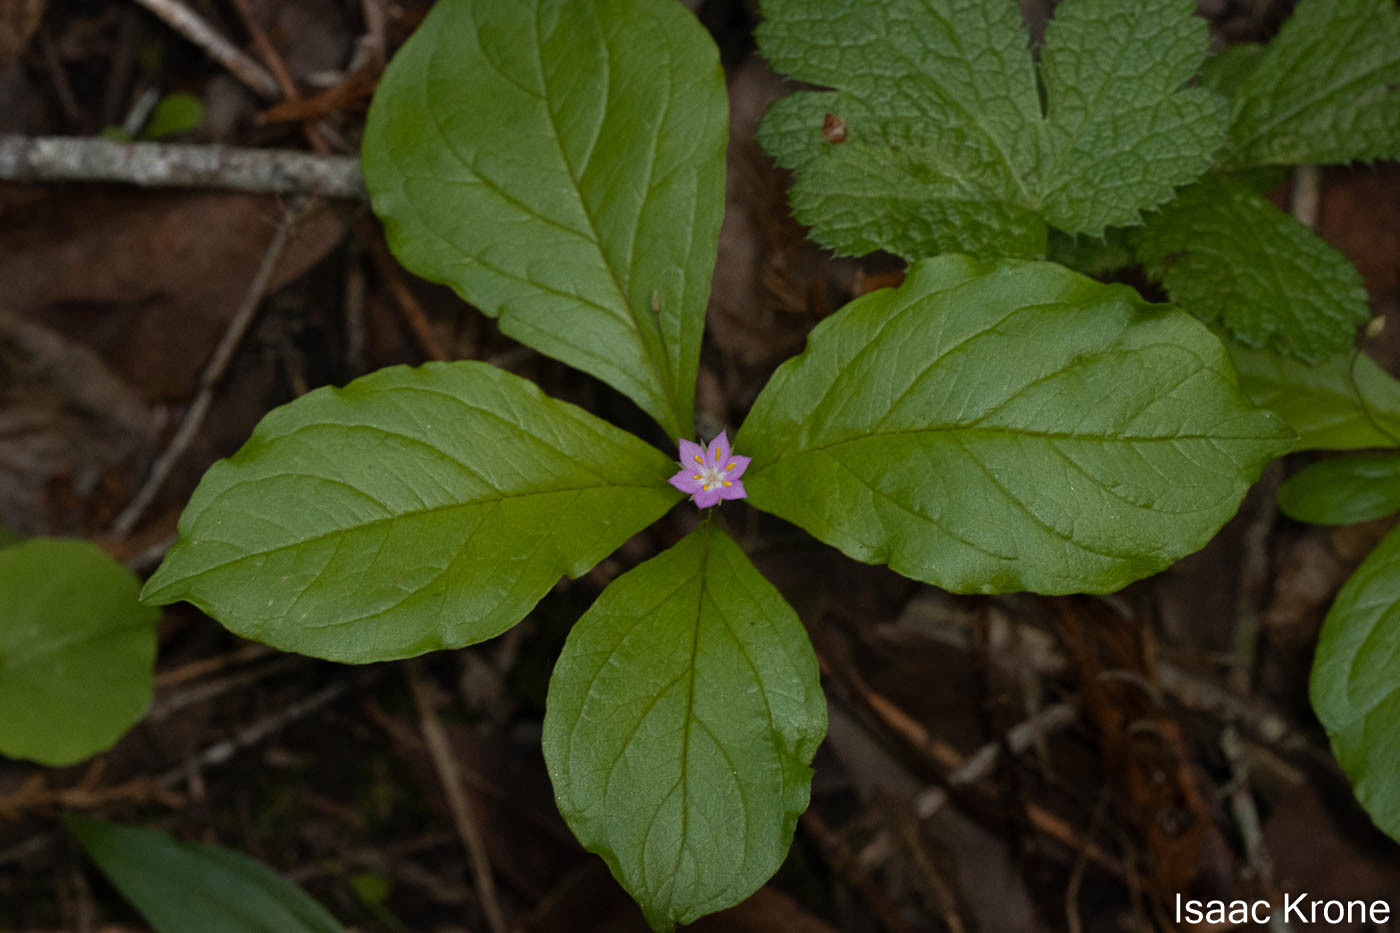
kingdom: Plantae
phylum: Tracheophyta
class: Magnoliopsida
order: Ericales
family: Primulaceae
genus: Lysimachia
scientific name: Lysimachia latifolia
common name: Pacific starflower
